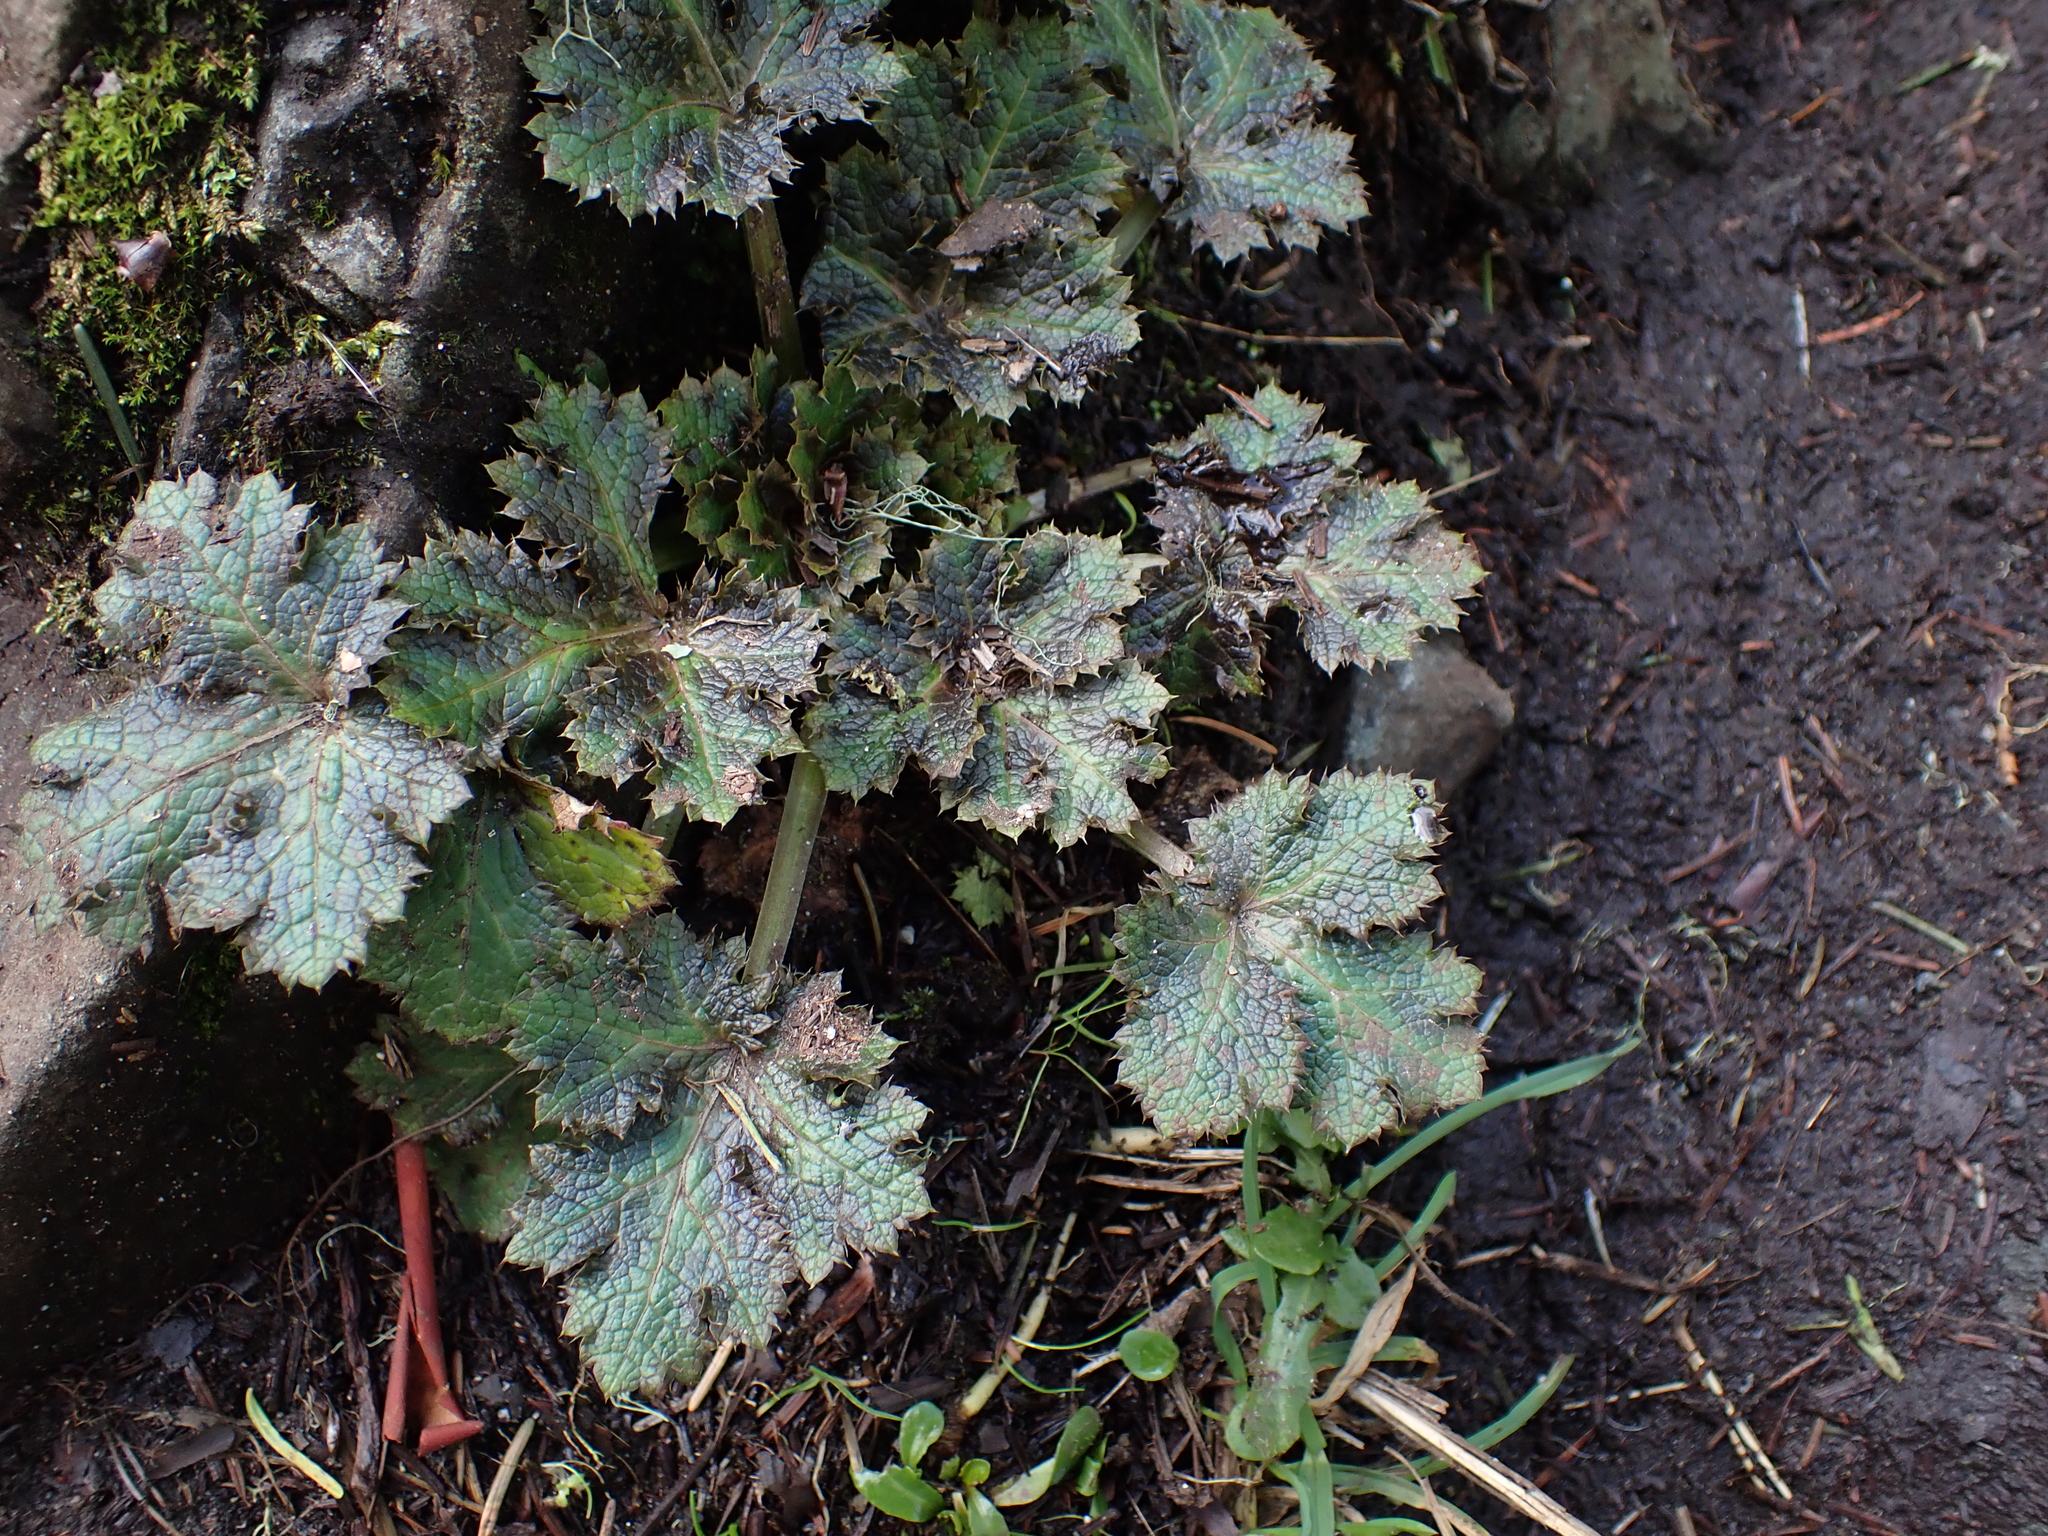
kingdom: Plantae
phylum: Tracheophyta
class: Magnoliopsida
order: Apiales
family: Apiaceae
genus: Sanicula
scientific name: Sanicula crassicaulis
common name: Western snakeroot
